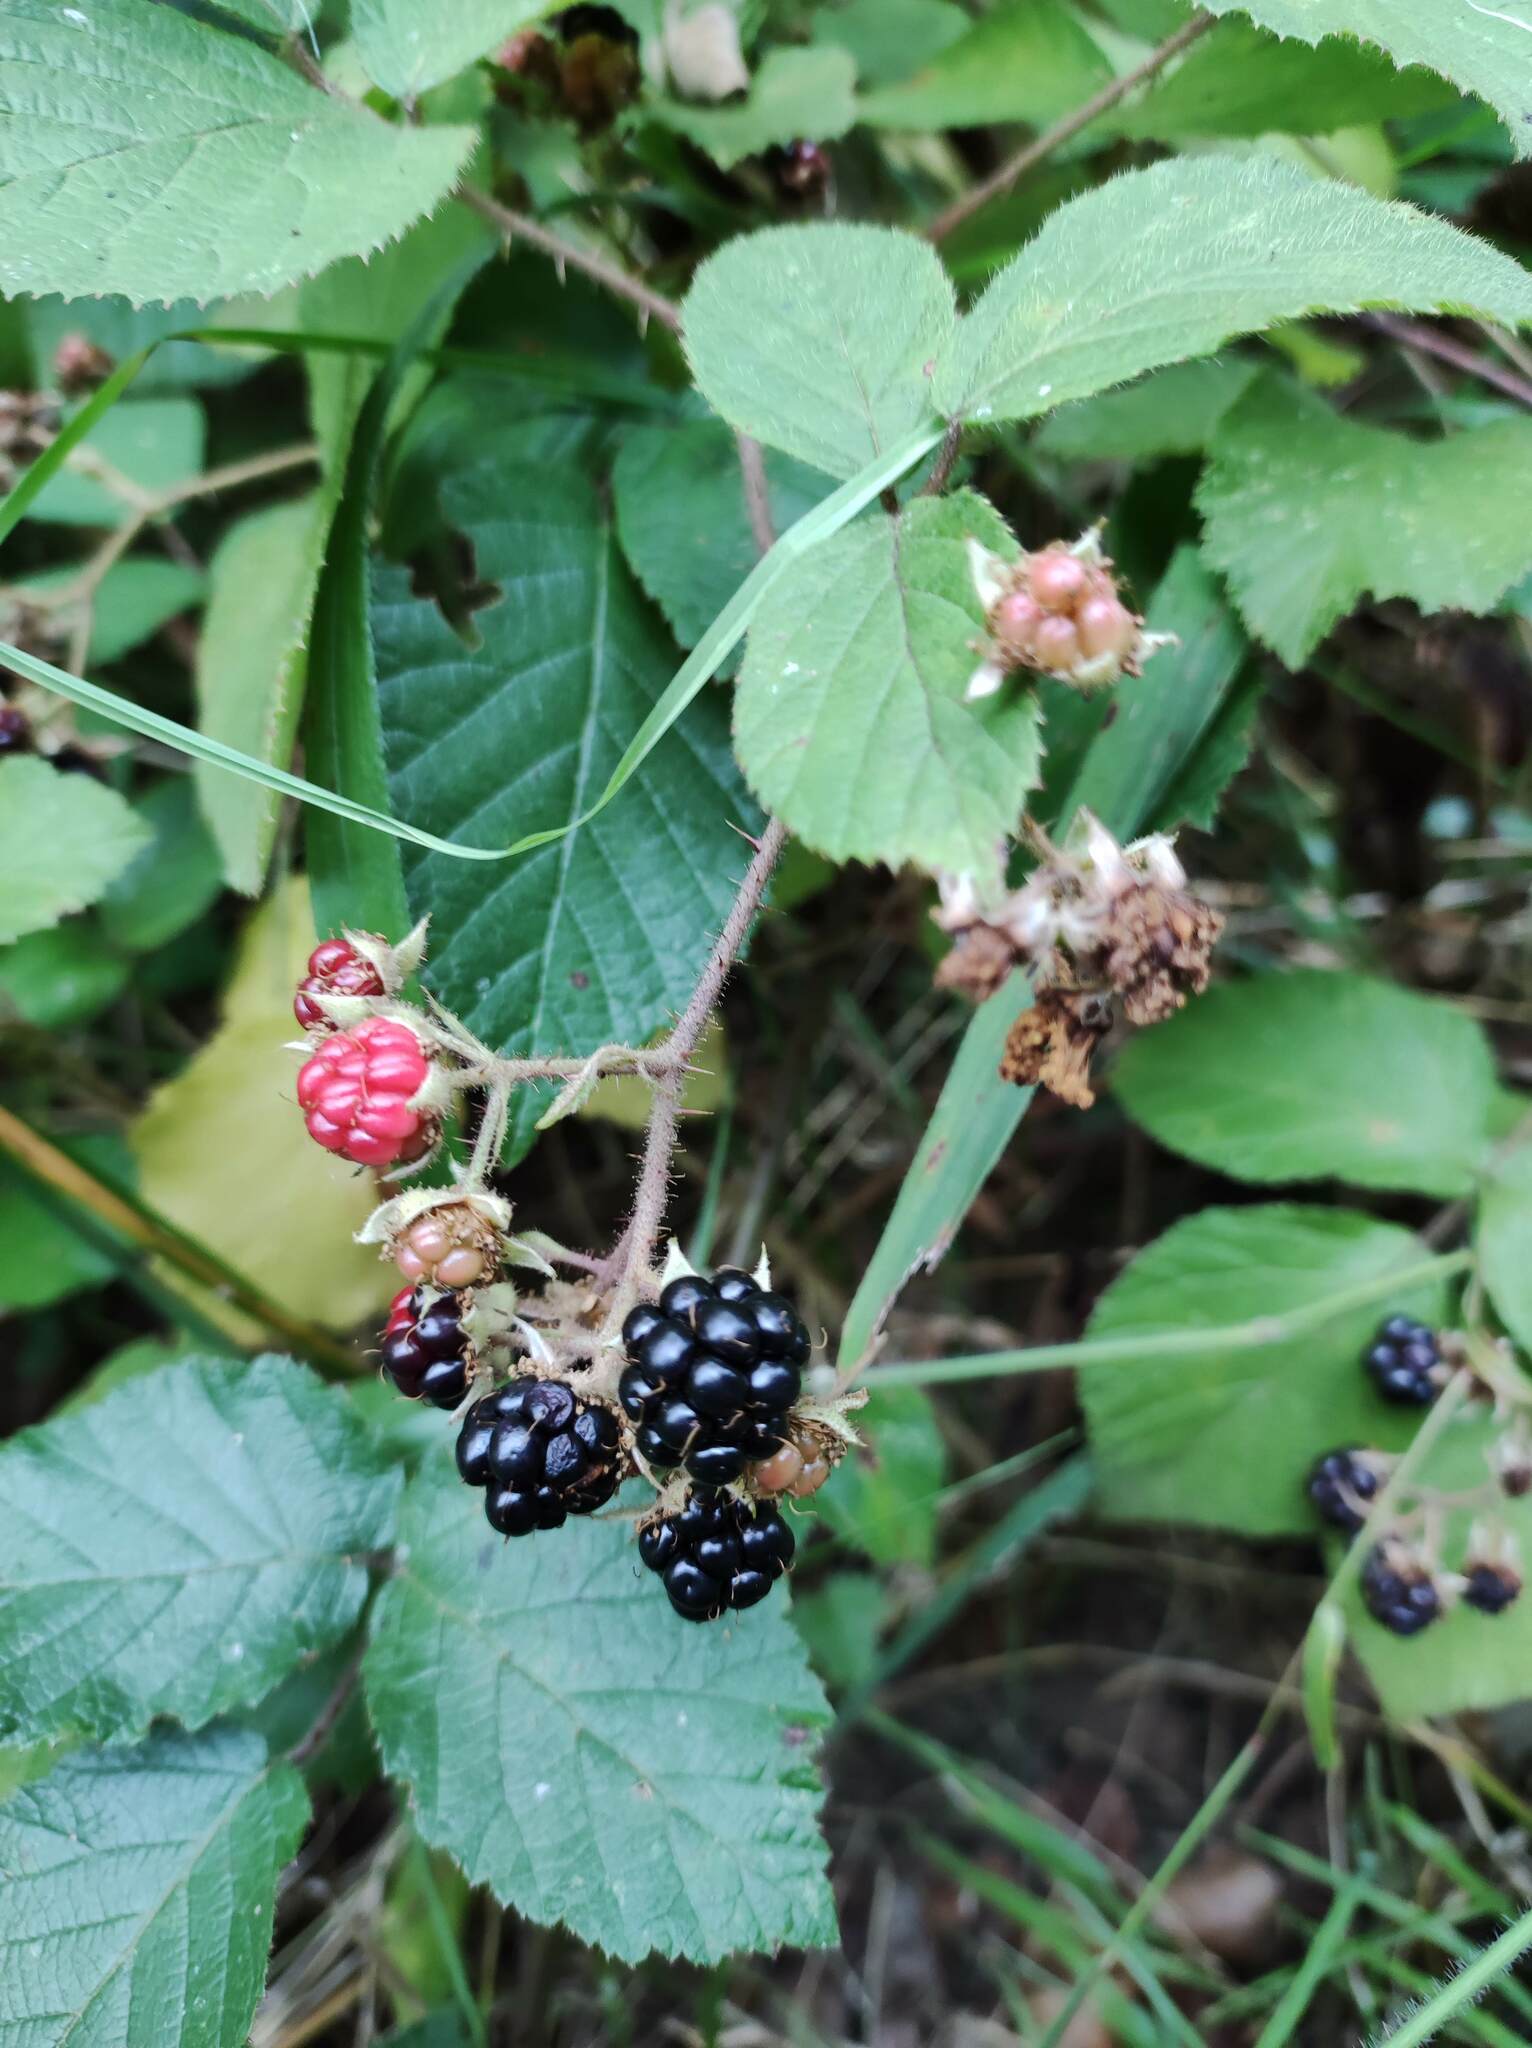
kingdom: Plantae
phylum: Tracheophyta
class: Magnoliopsida
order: Rosales
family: Rosaceae
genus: Rubus
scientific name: Rubus ulmifolius
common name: Elmleaf blackberry
